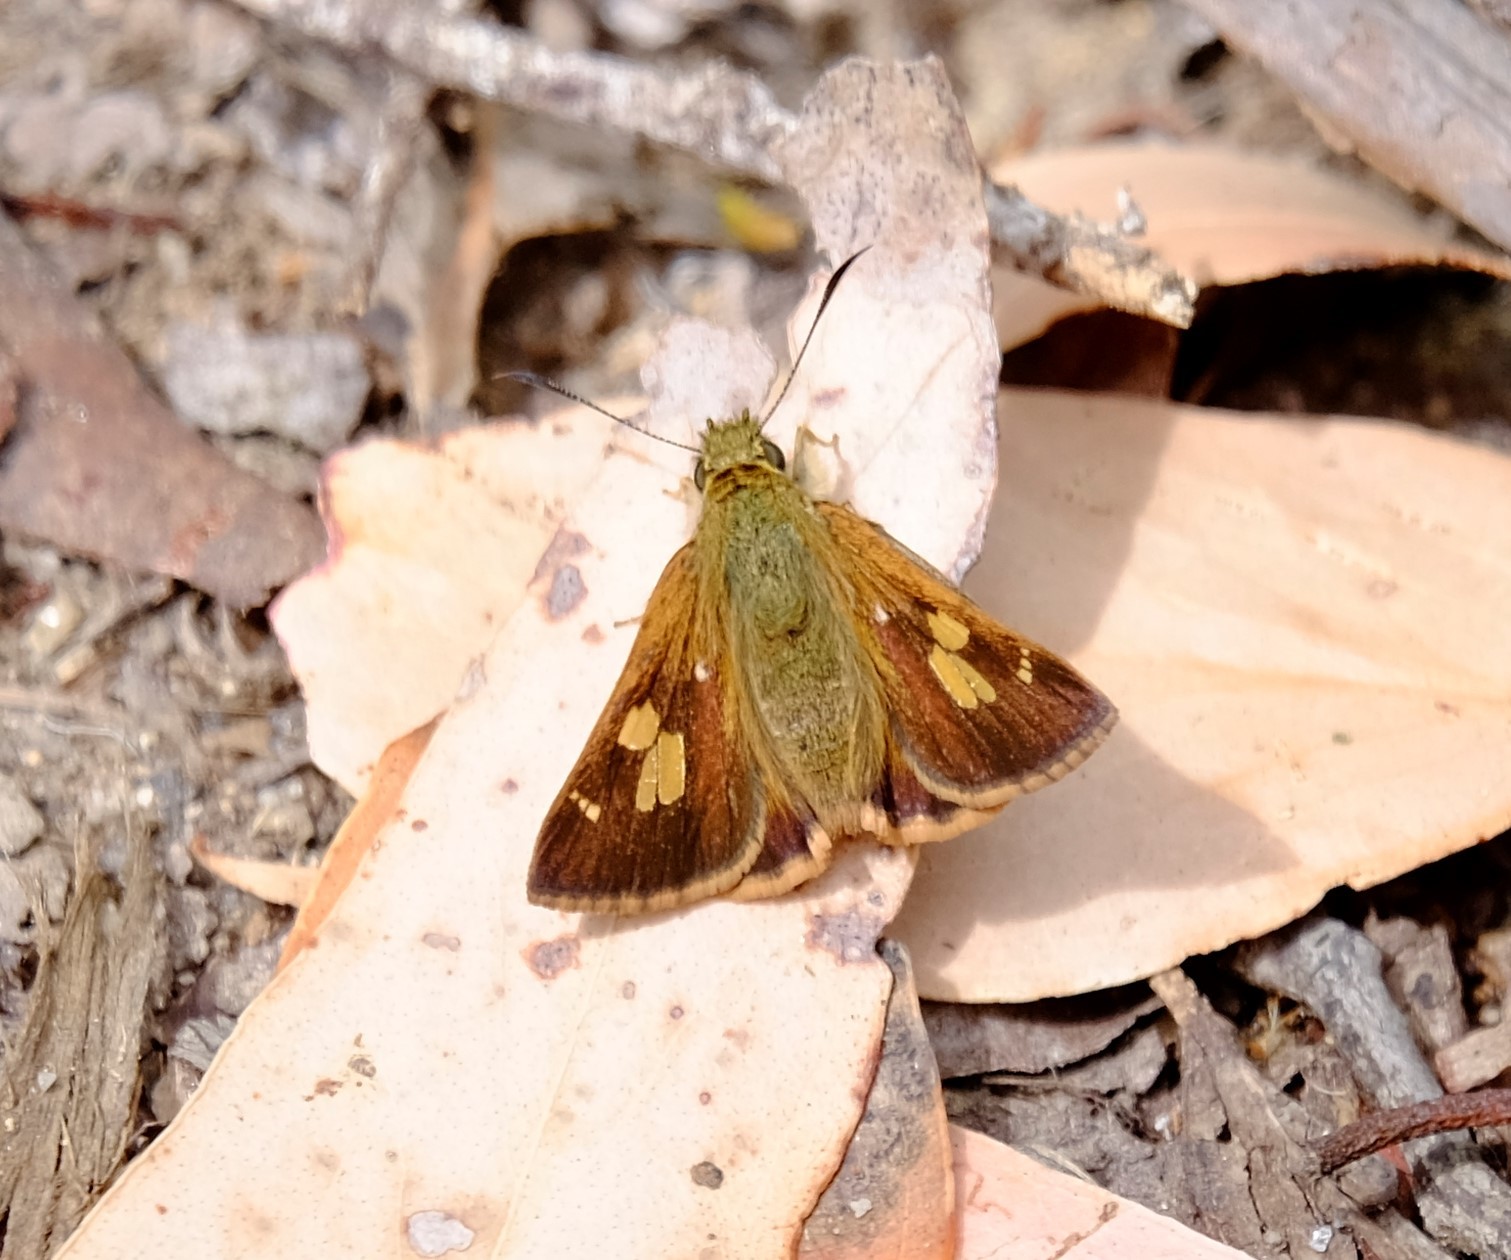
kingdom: Animalia
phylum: Arthropoda
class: Insecta
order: Lepidoptera
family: Hesperiidae
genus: Toxidia
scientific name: Toxidia
